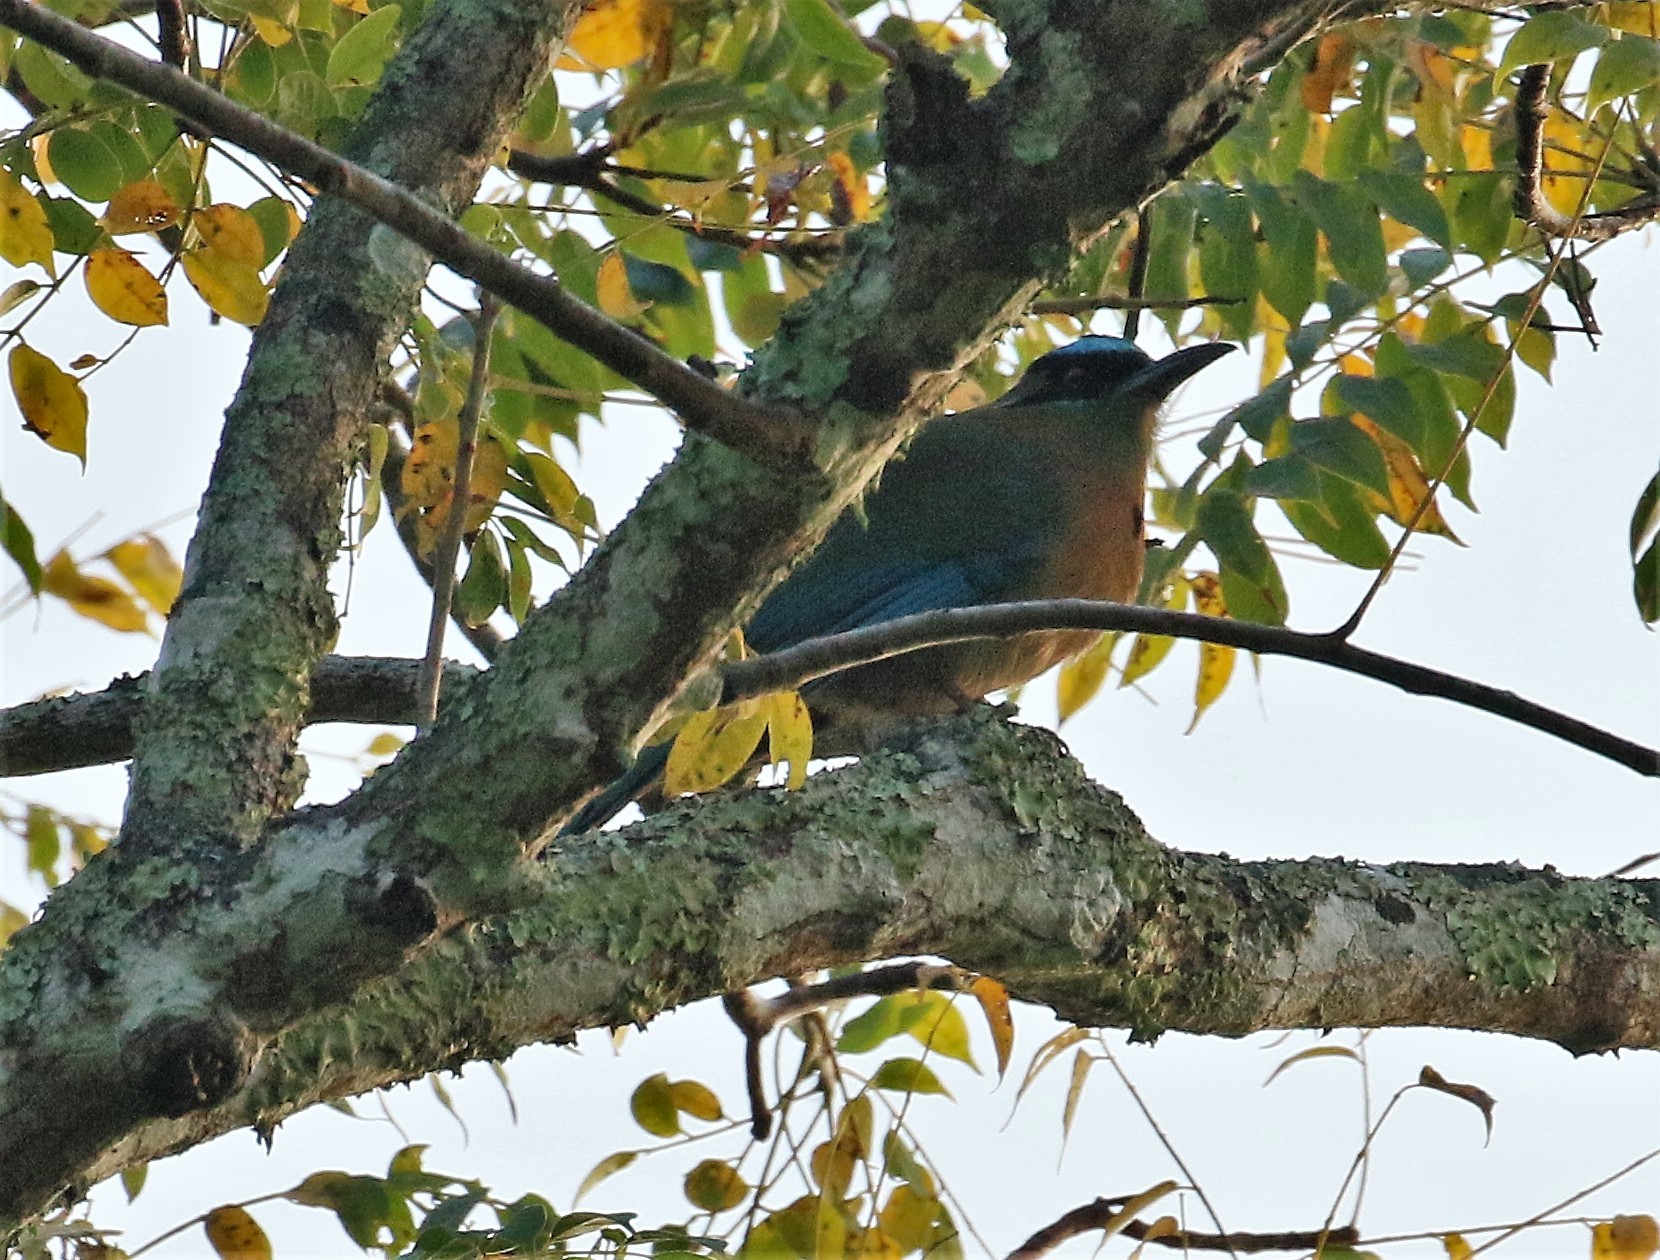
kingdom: Animalia
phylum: Chordata
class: Aves
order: Coraciiformes
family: Momotidae
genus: Momotus
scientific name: Momotus lessonii
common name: Lesson's motmot
